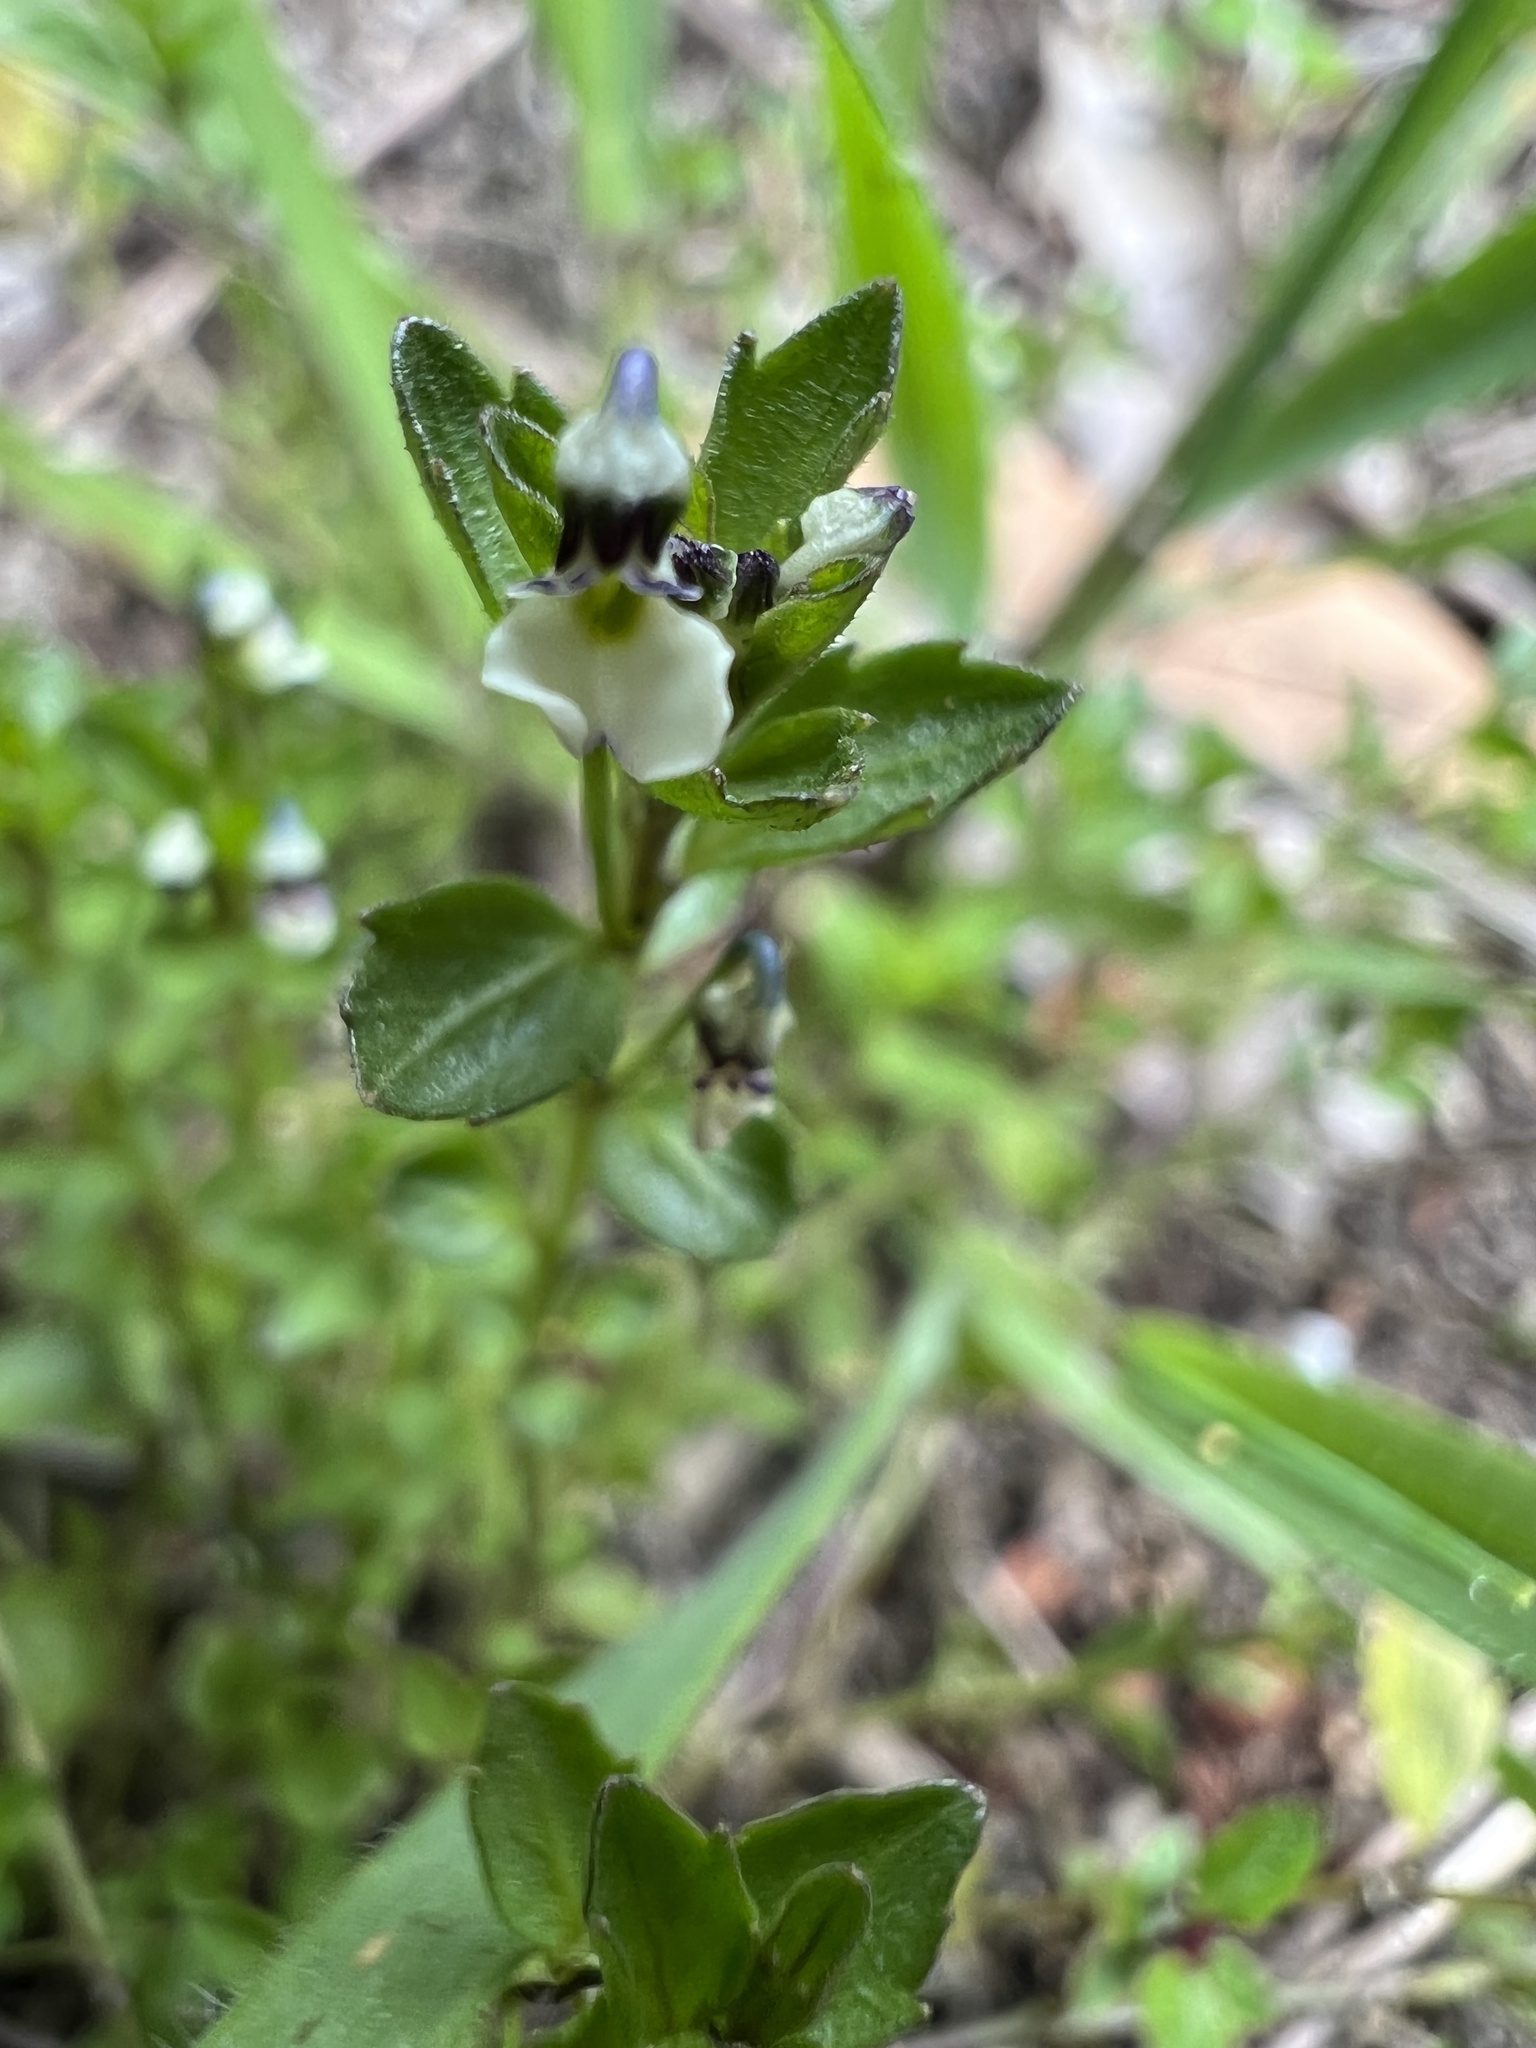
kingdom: Plantae
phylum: Tracheophyta
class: Magnoliopsida
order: Malpighiales
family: Violaceae
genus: Pombalia
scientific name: Pombalia parviflora
